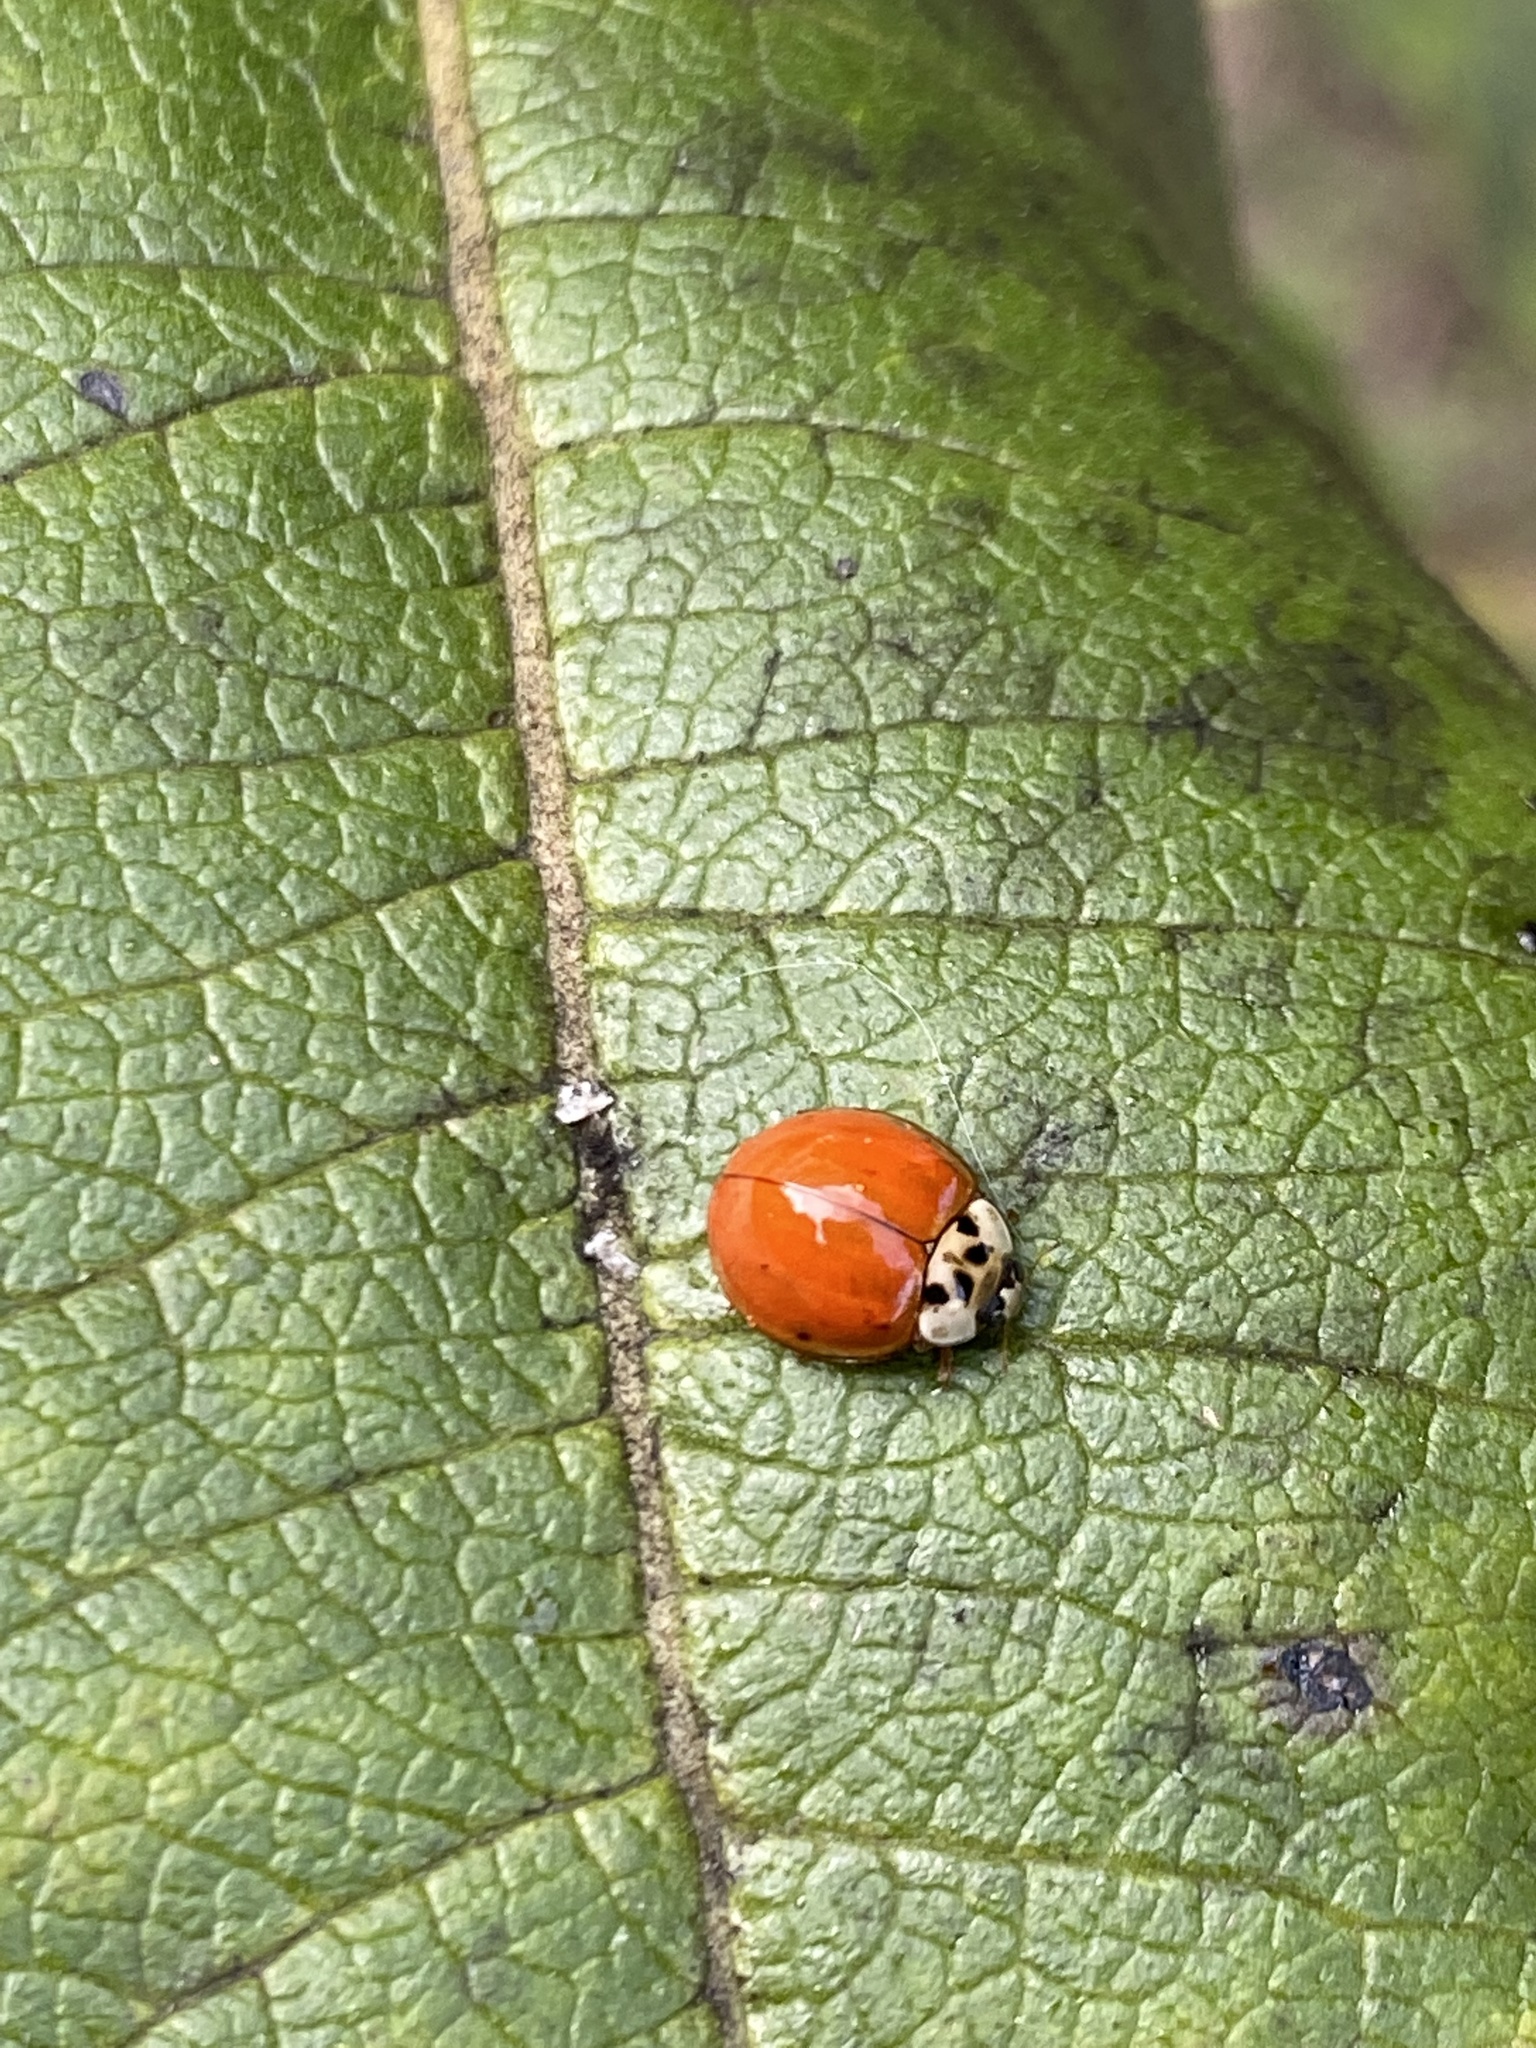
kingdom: Animalia
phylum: Arthropoda
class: Insecta
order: Coleoptera
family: Coccinellidae
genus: Harmonia
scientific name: Harmonia axyridis
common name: Harlequin ladybird
